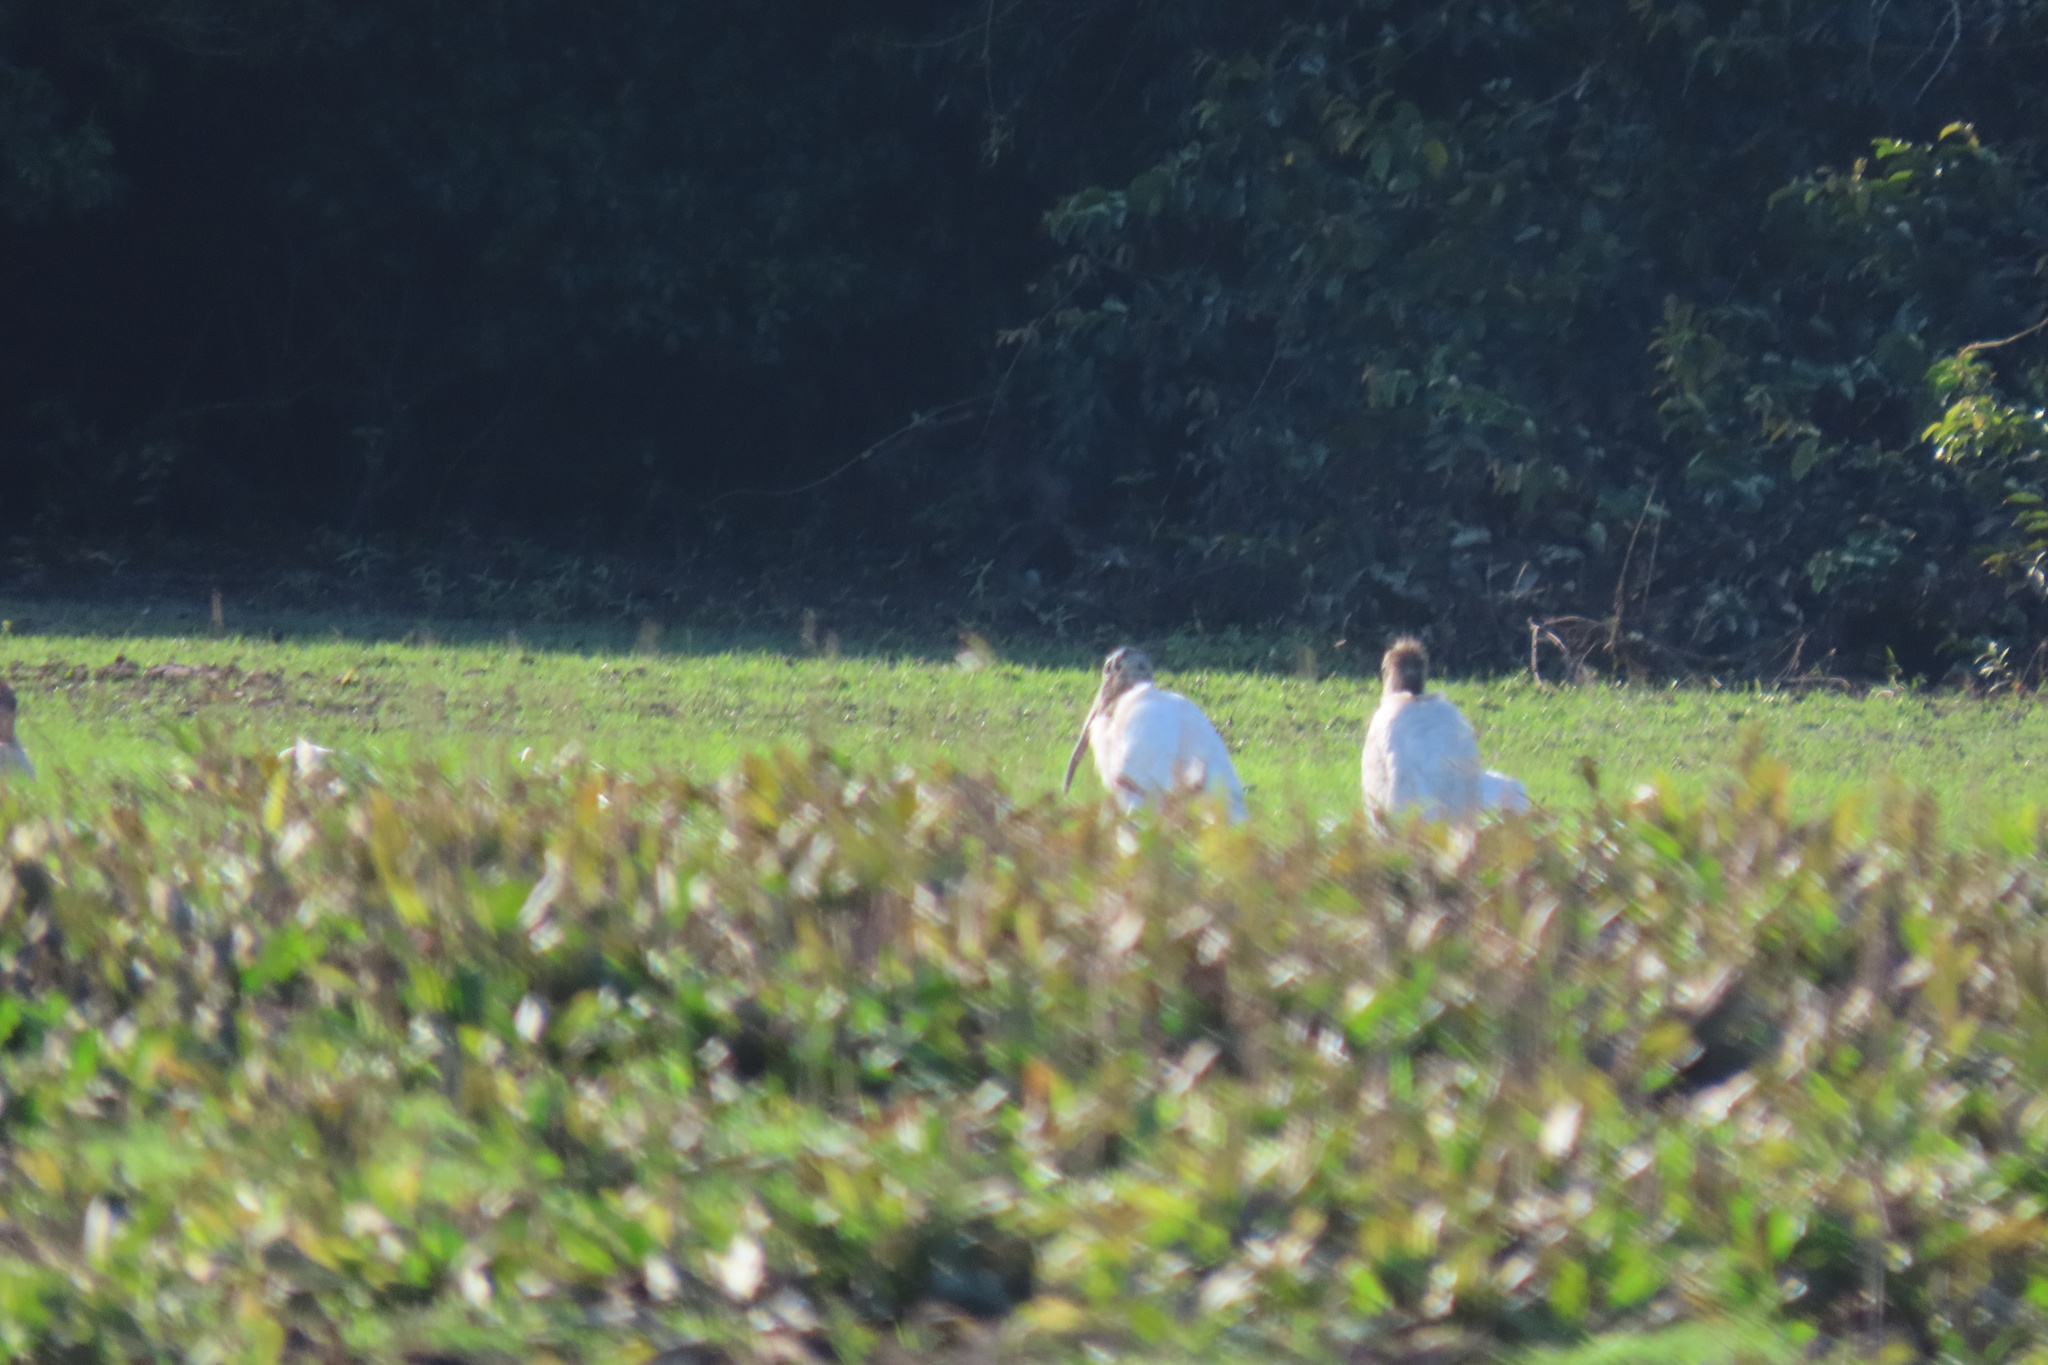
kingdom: Animalia
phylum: Chordata
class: Aves
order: Ciconiiformes
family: Ciconiidae
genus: Mycteria
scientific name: Mycteria americana
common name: Wood stork
